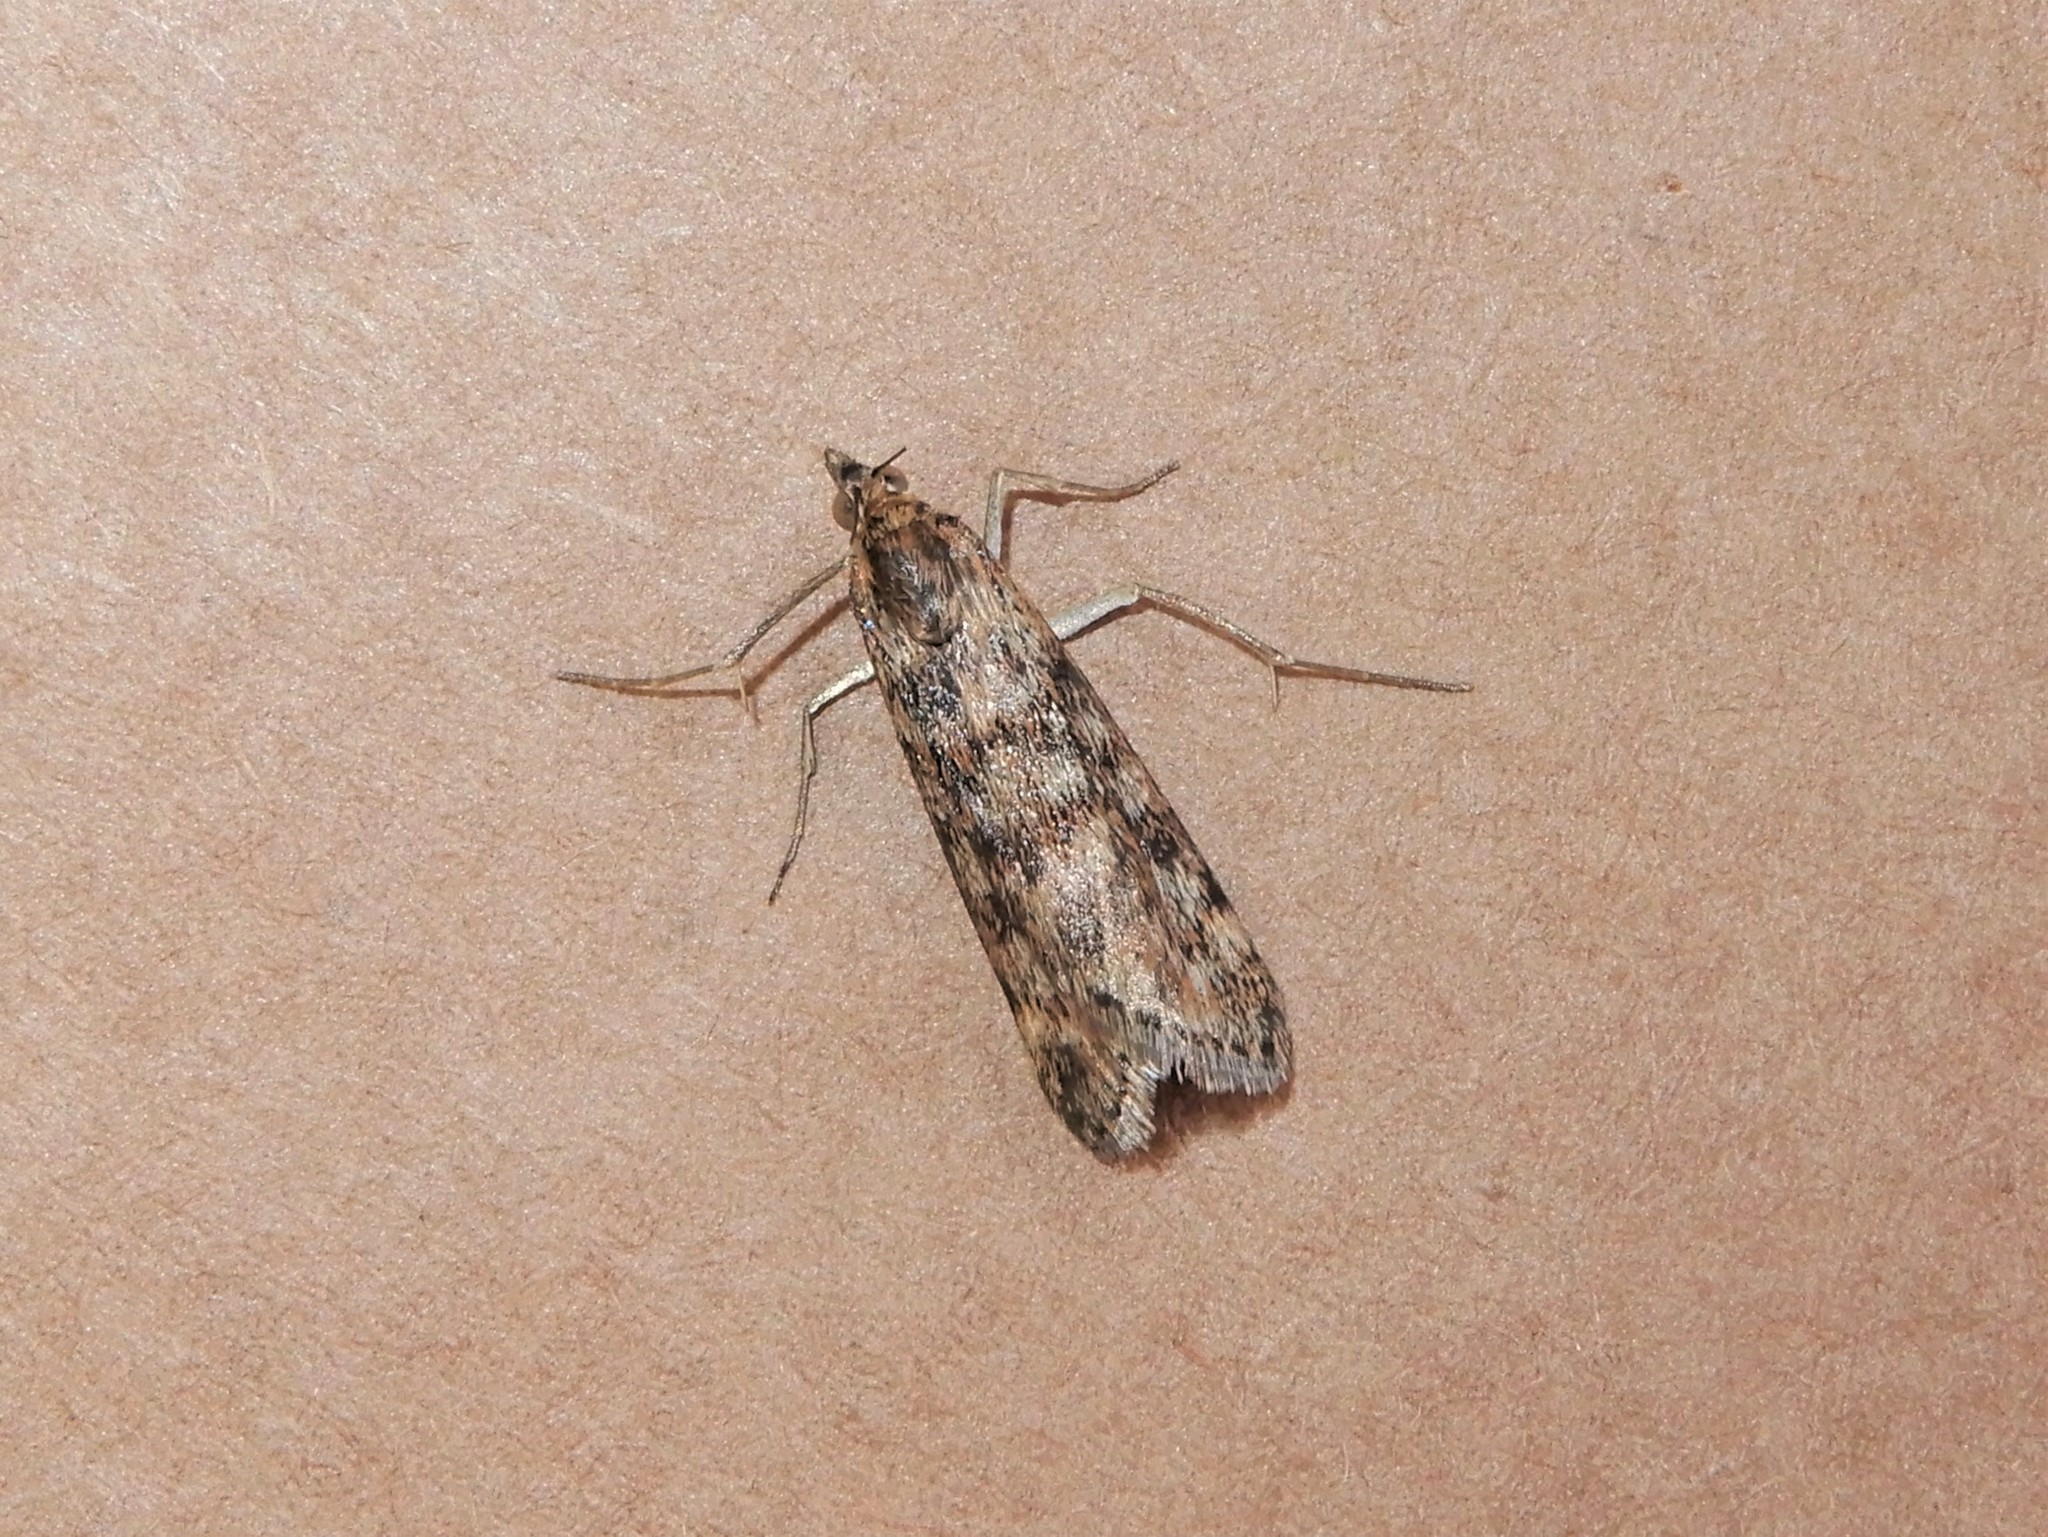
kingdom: Animalia
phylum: Arthropoda
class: Insecta
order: Lepidoptera
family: Crambidae
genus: Achyra
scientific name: Achyra affinitalis
